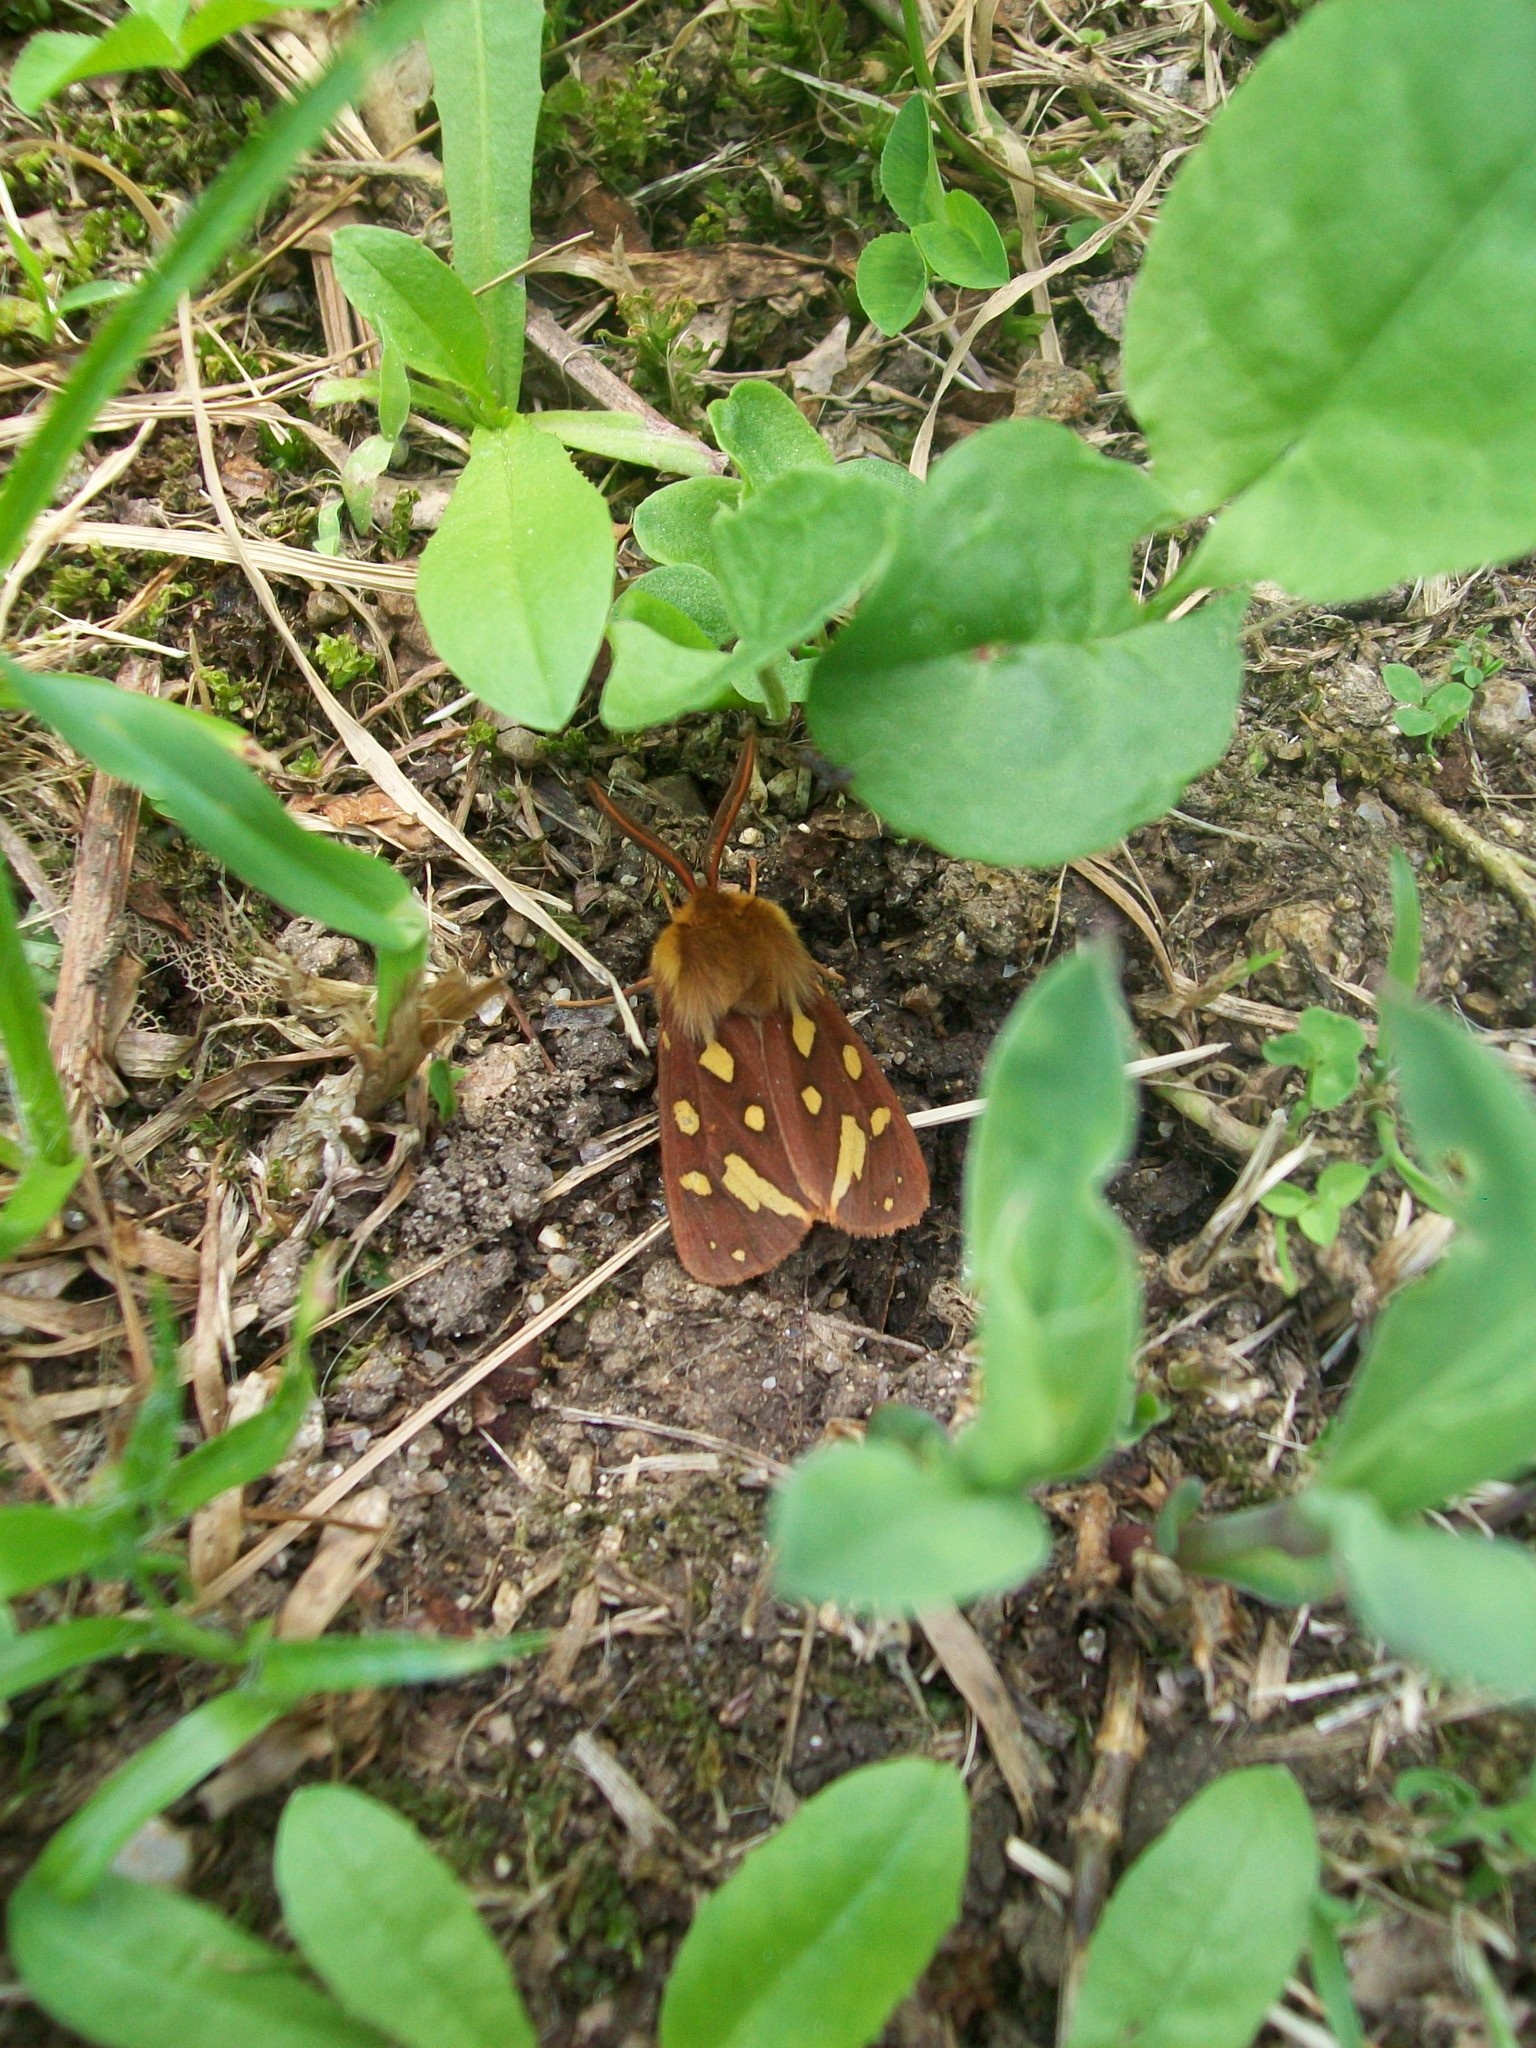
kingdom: Animalia
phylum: Arthropoda
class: Insecta
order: Lepidoptera
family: Erebidae
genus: Arctia
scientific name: Arctia testudinaria
